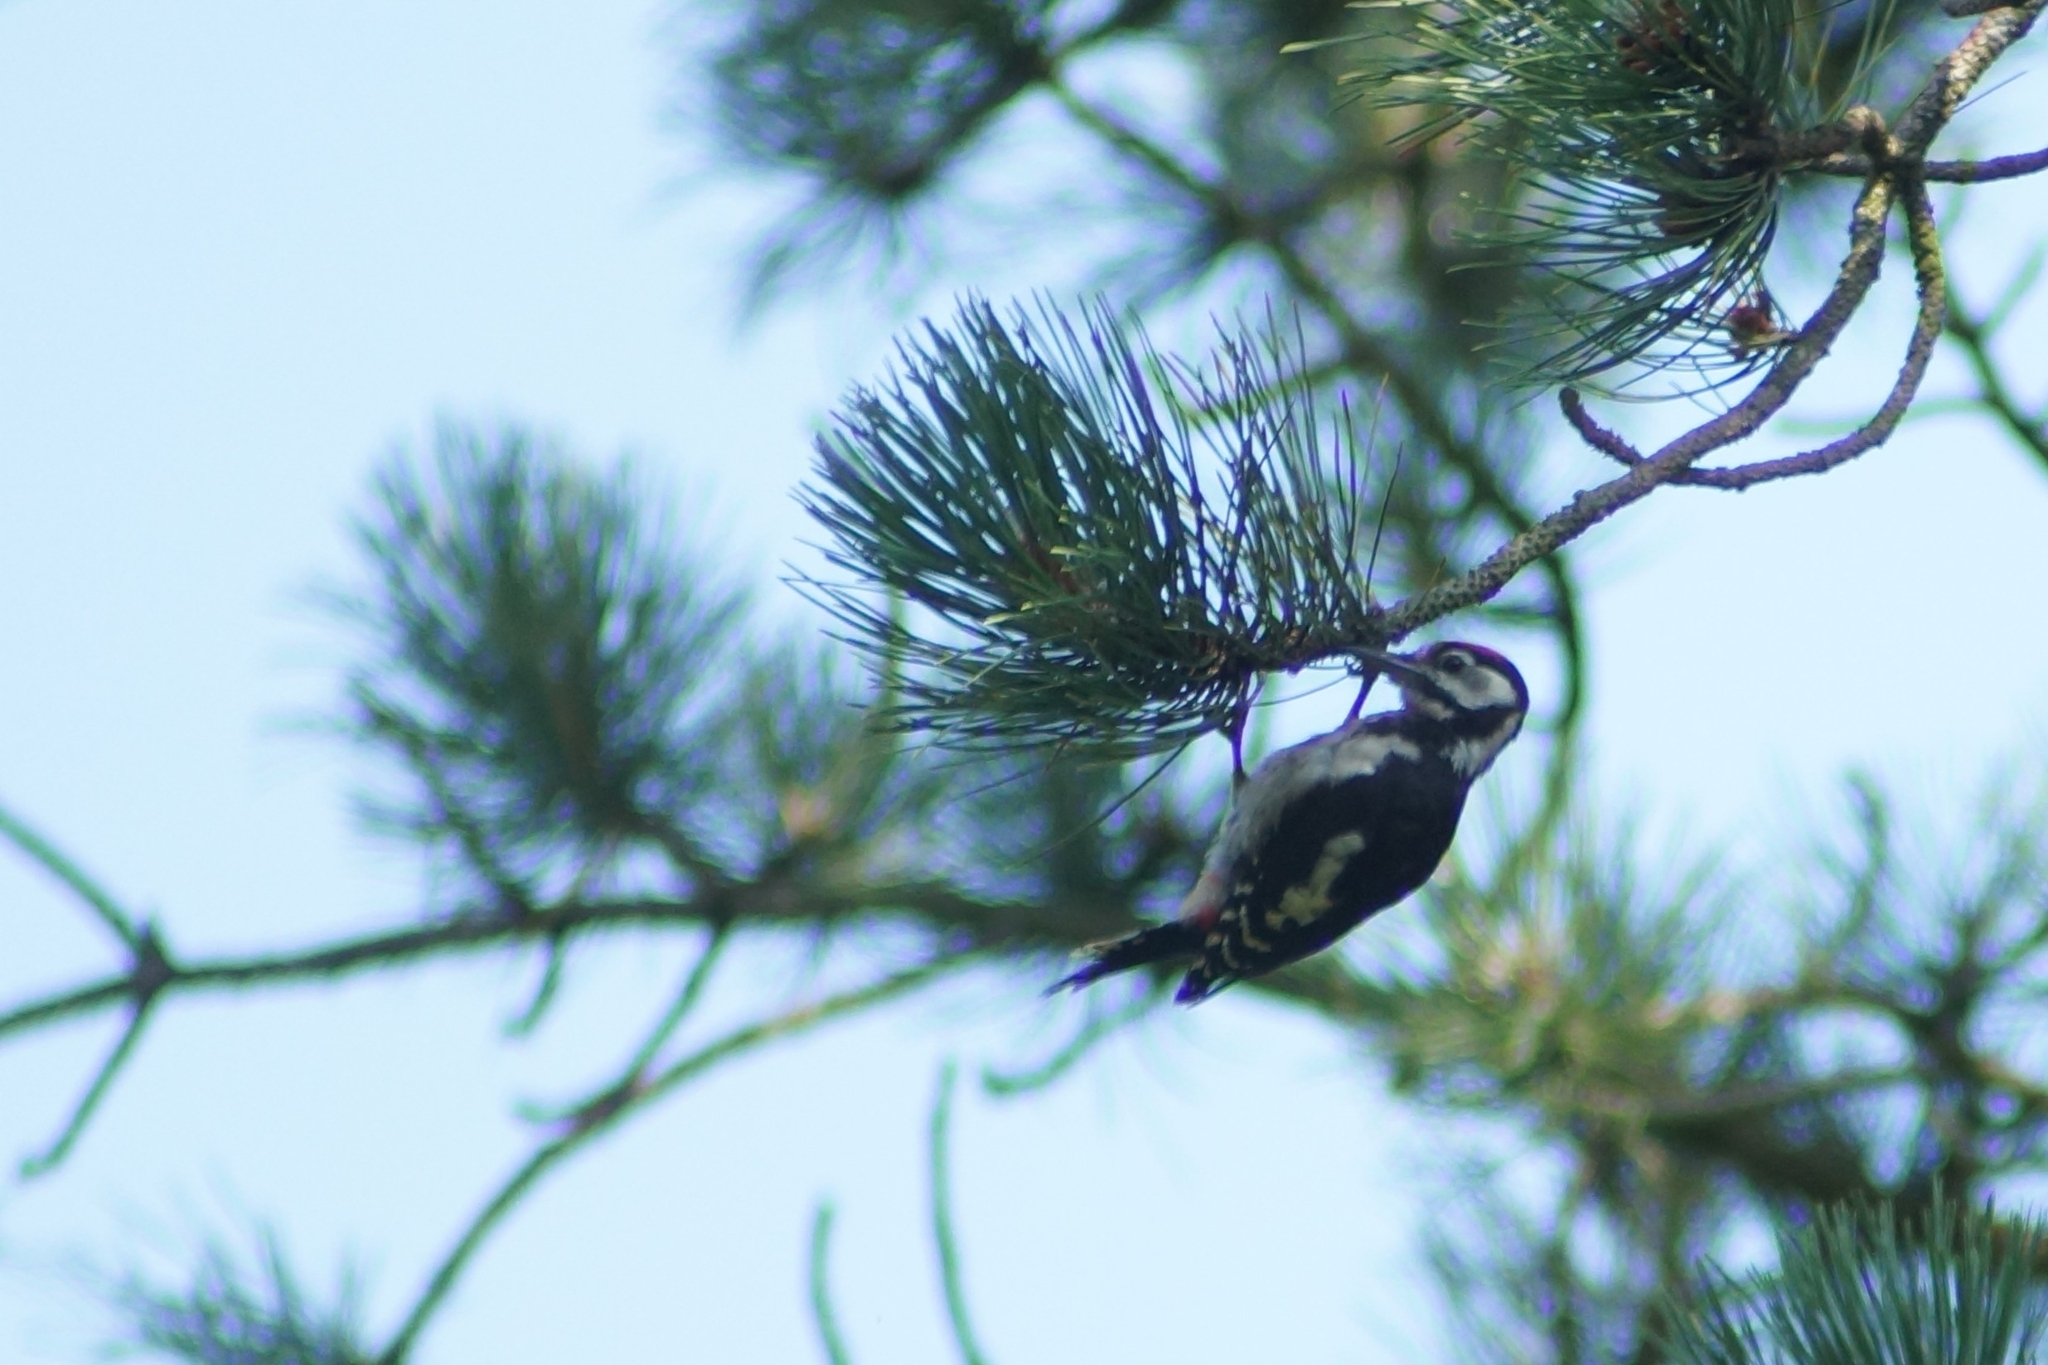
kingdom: Animalia
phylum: Chordata
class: Aves
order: Piciformes
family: Picidae
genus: Dendrocopos
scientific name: Dendrocopos major
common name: Great spotted woodpecker
